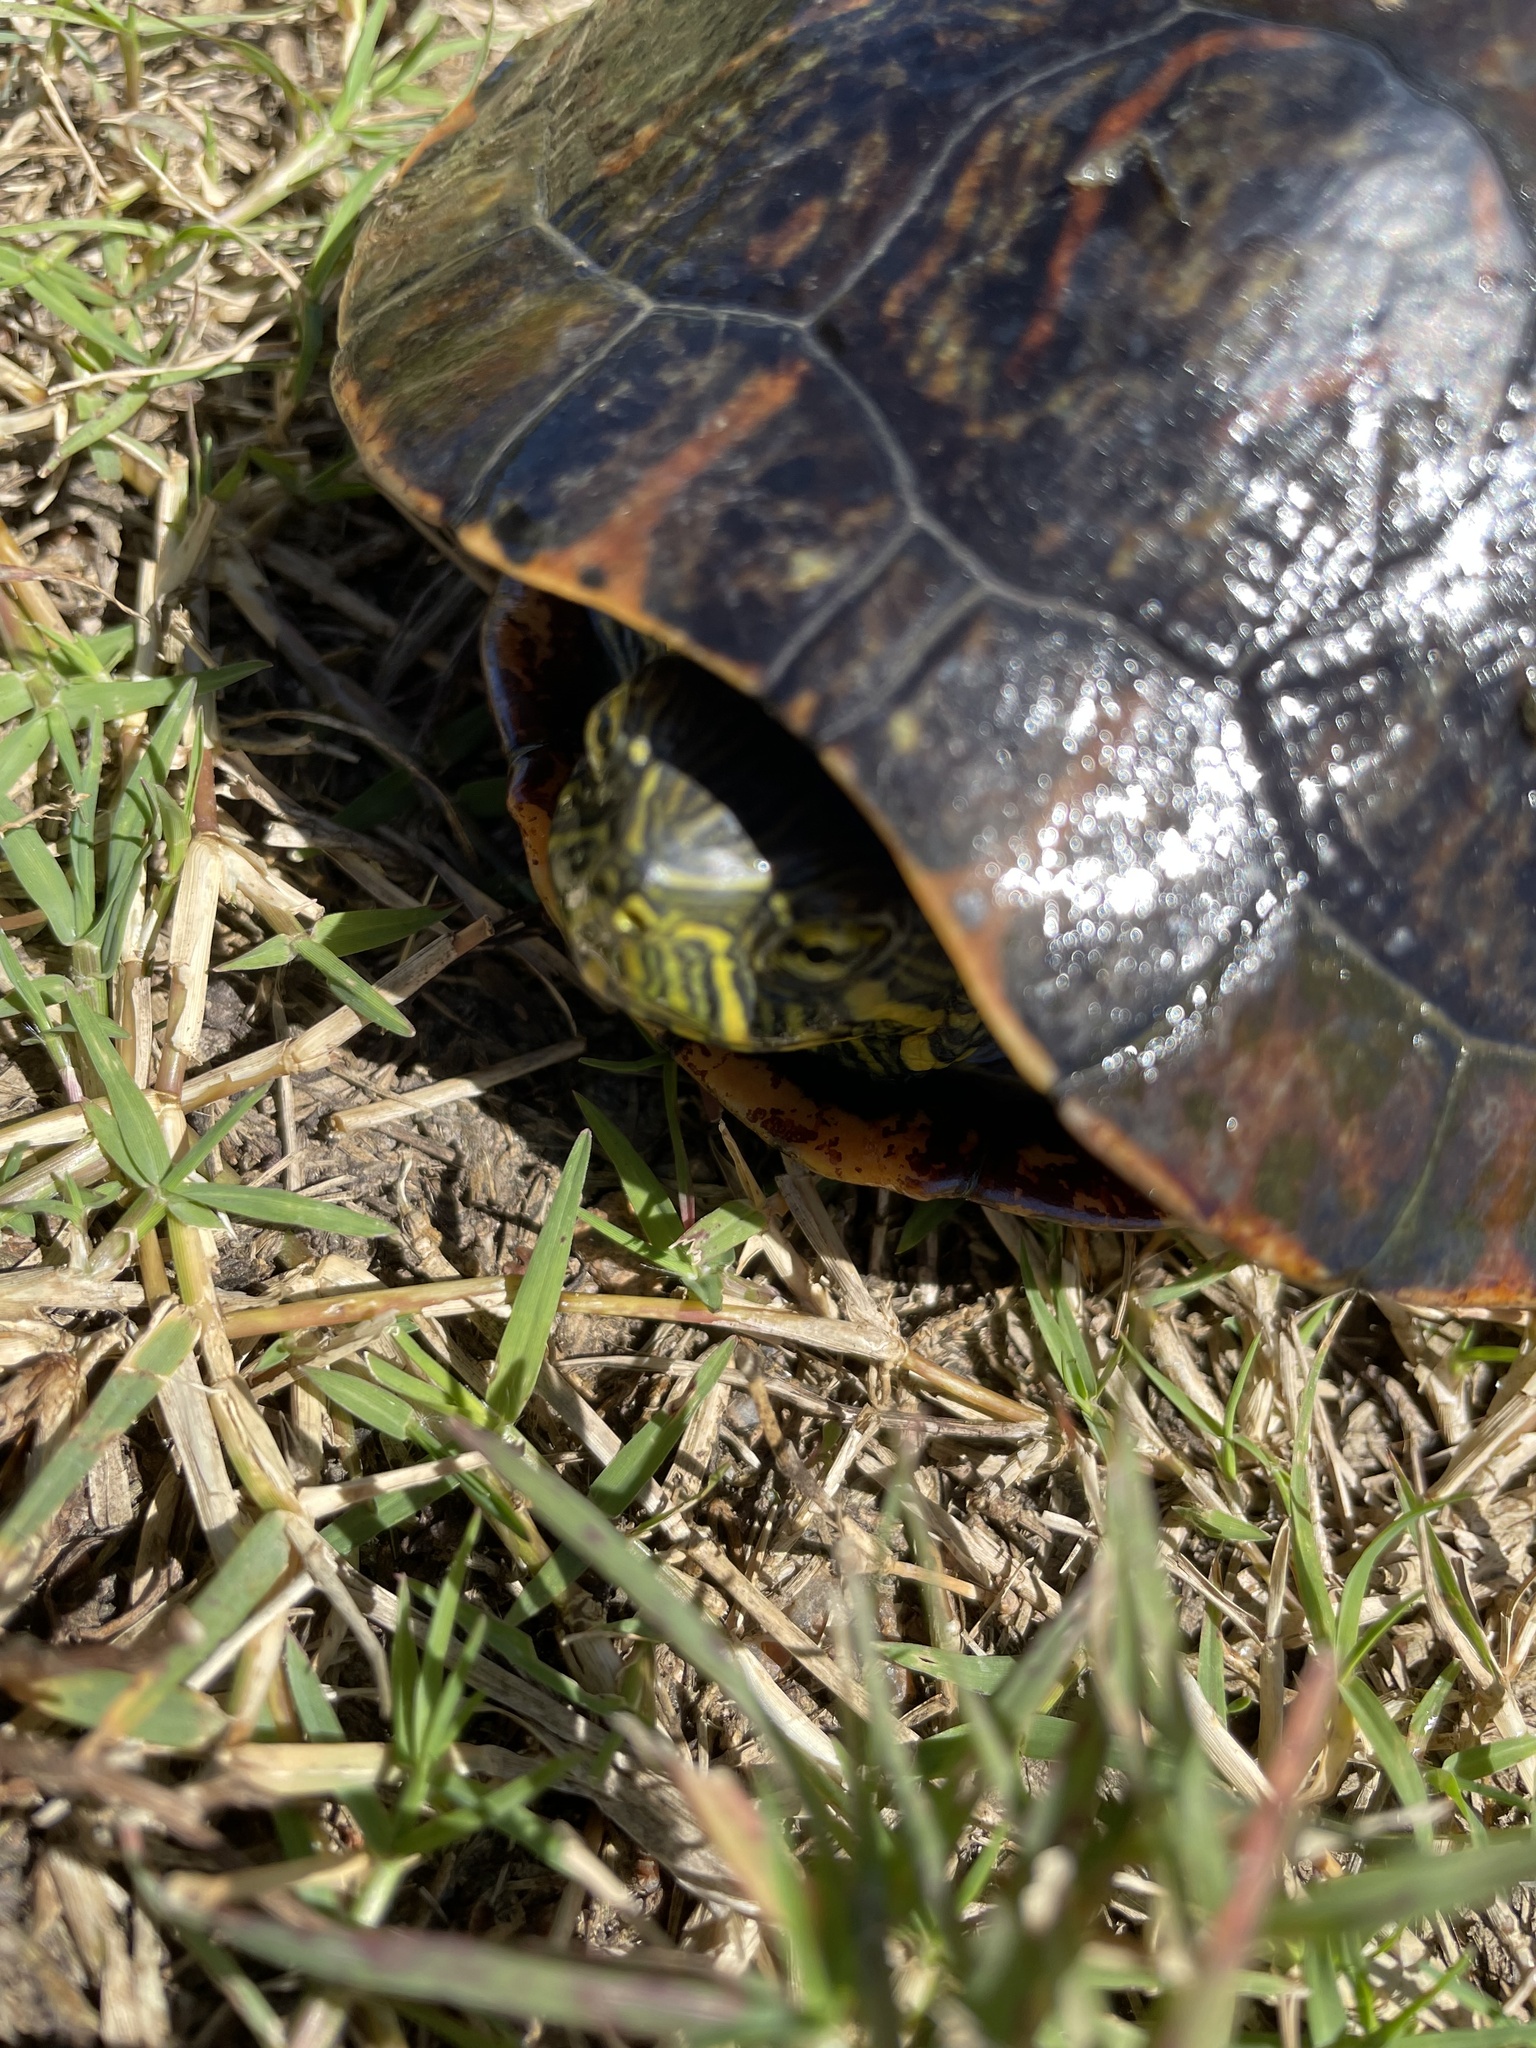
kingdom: Animalia
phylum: Chordata
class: Testudines
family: Emydidae
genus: Trachemys
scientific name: Trachemys dorbigni
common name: Black-bellied slider
